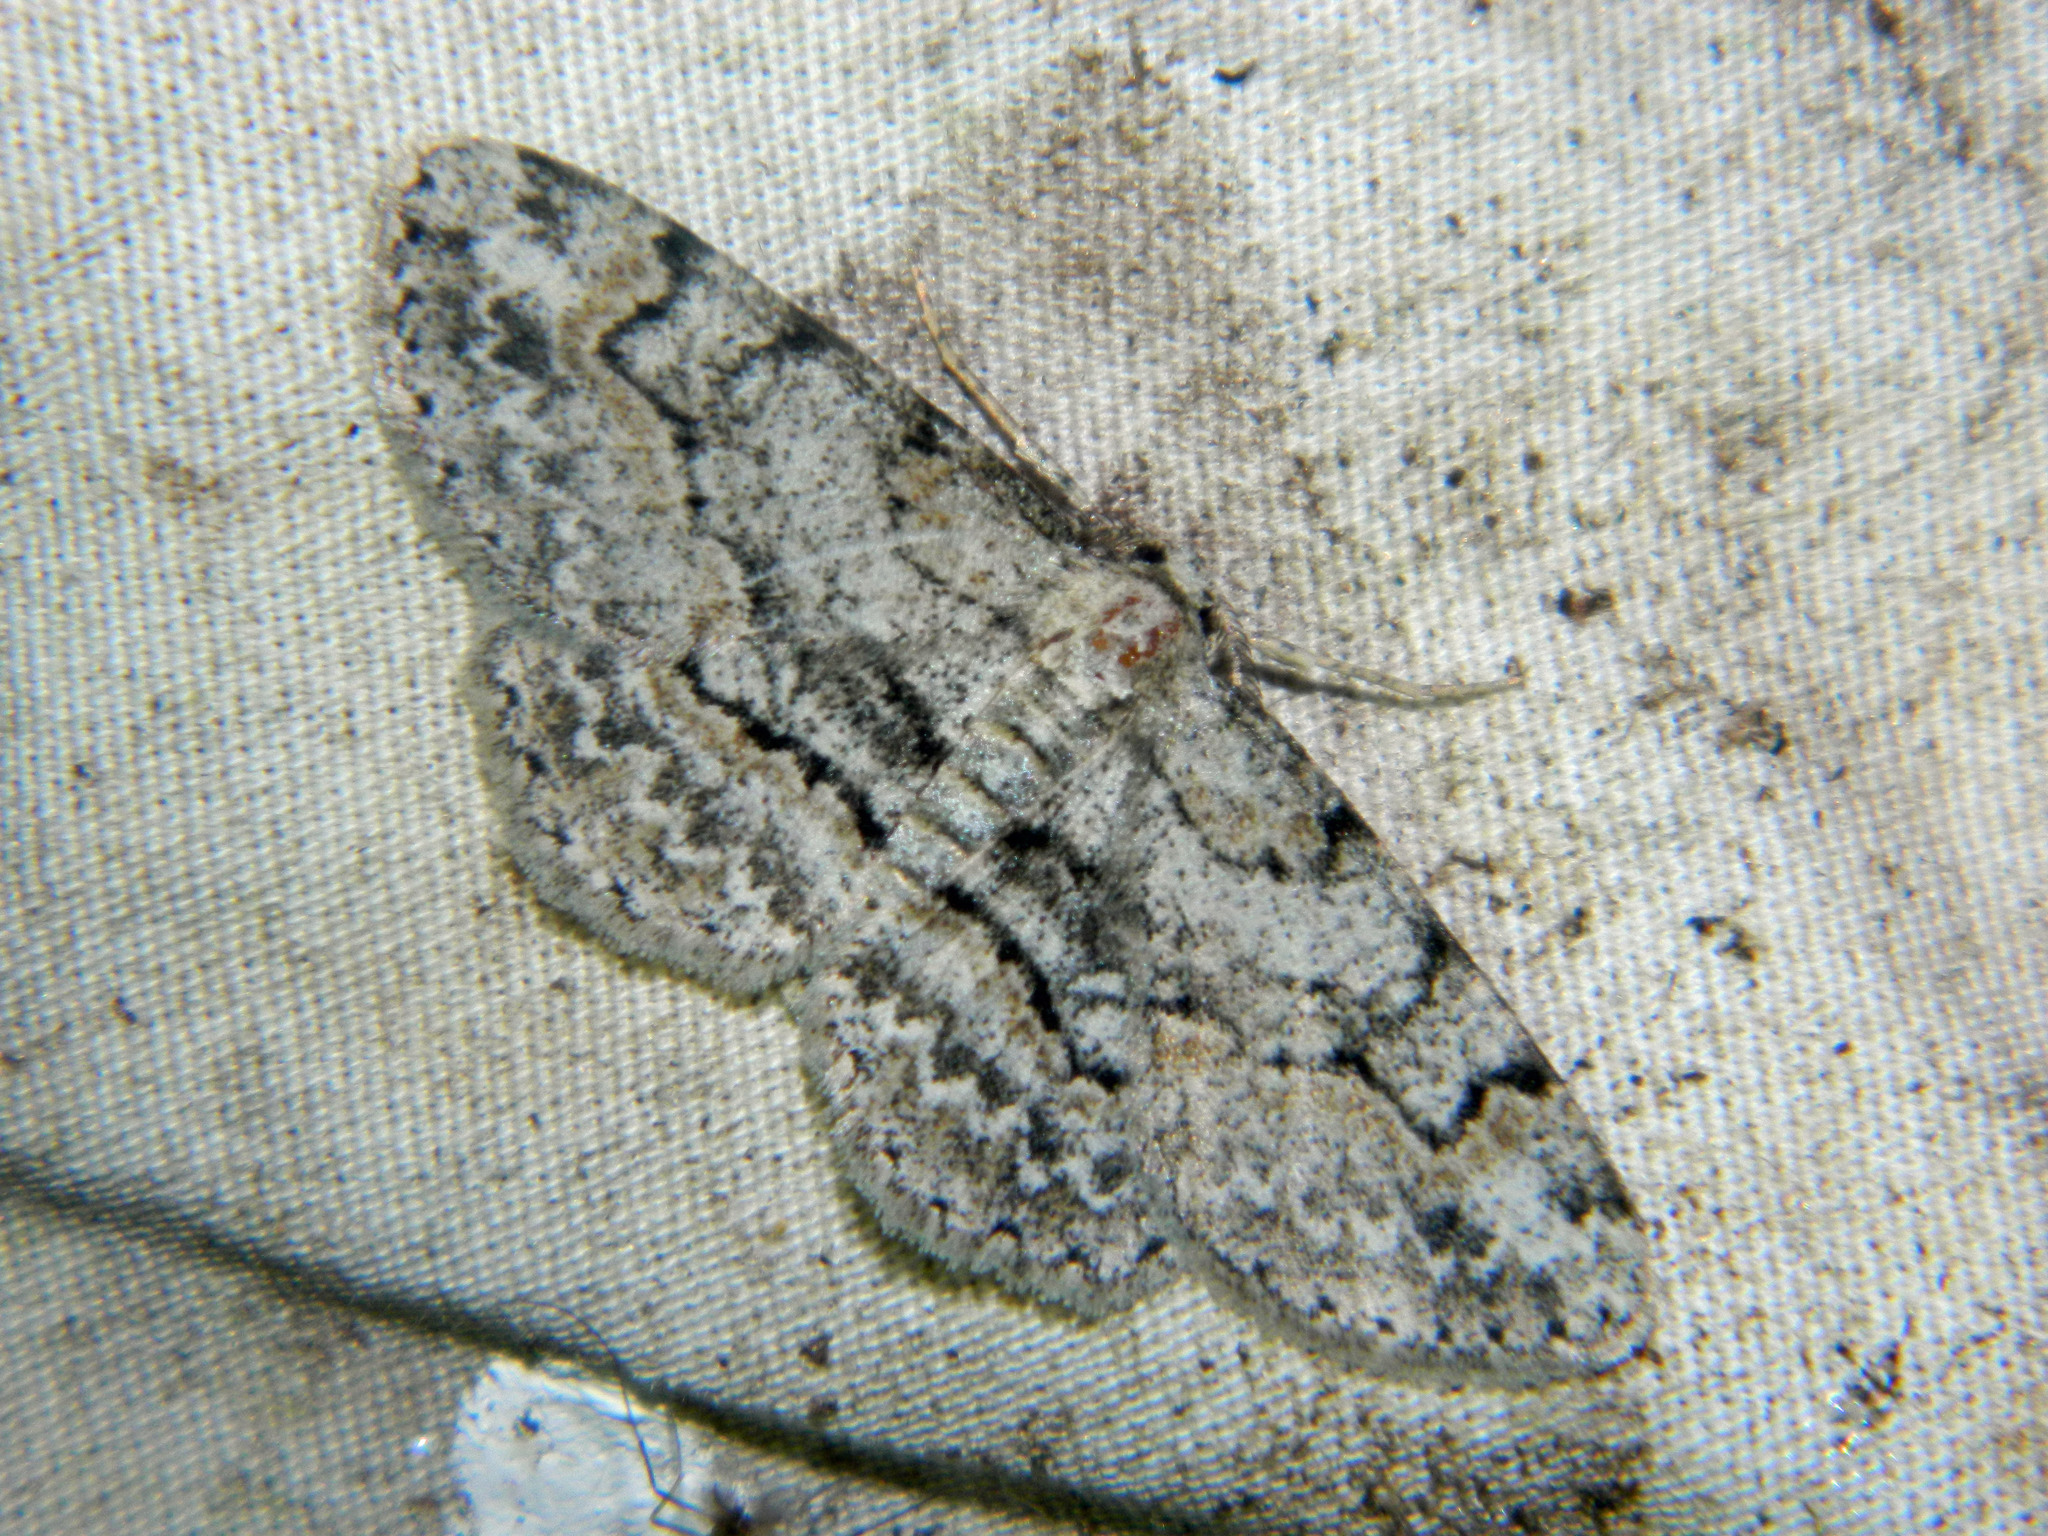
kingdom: Animalia
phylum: Arthropoda
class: Insecta
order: Lepidoptera
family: Geometridae
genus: Iridopsis
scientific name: Iridopsis ephyraria
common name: Pale-winged gray
